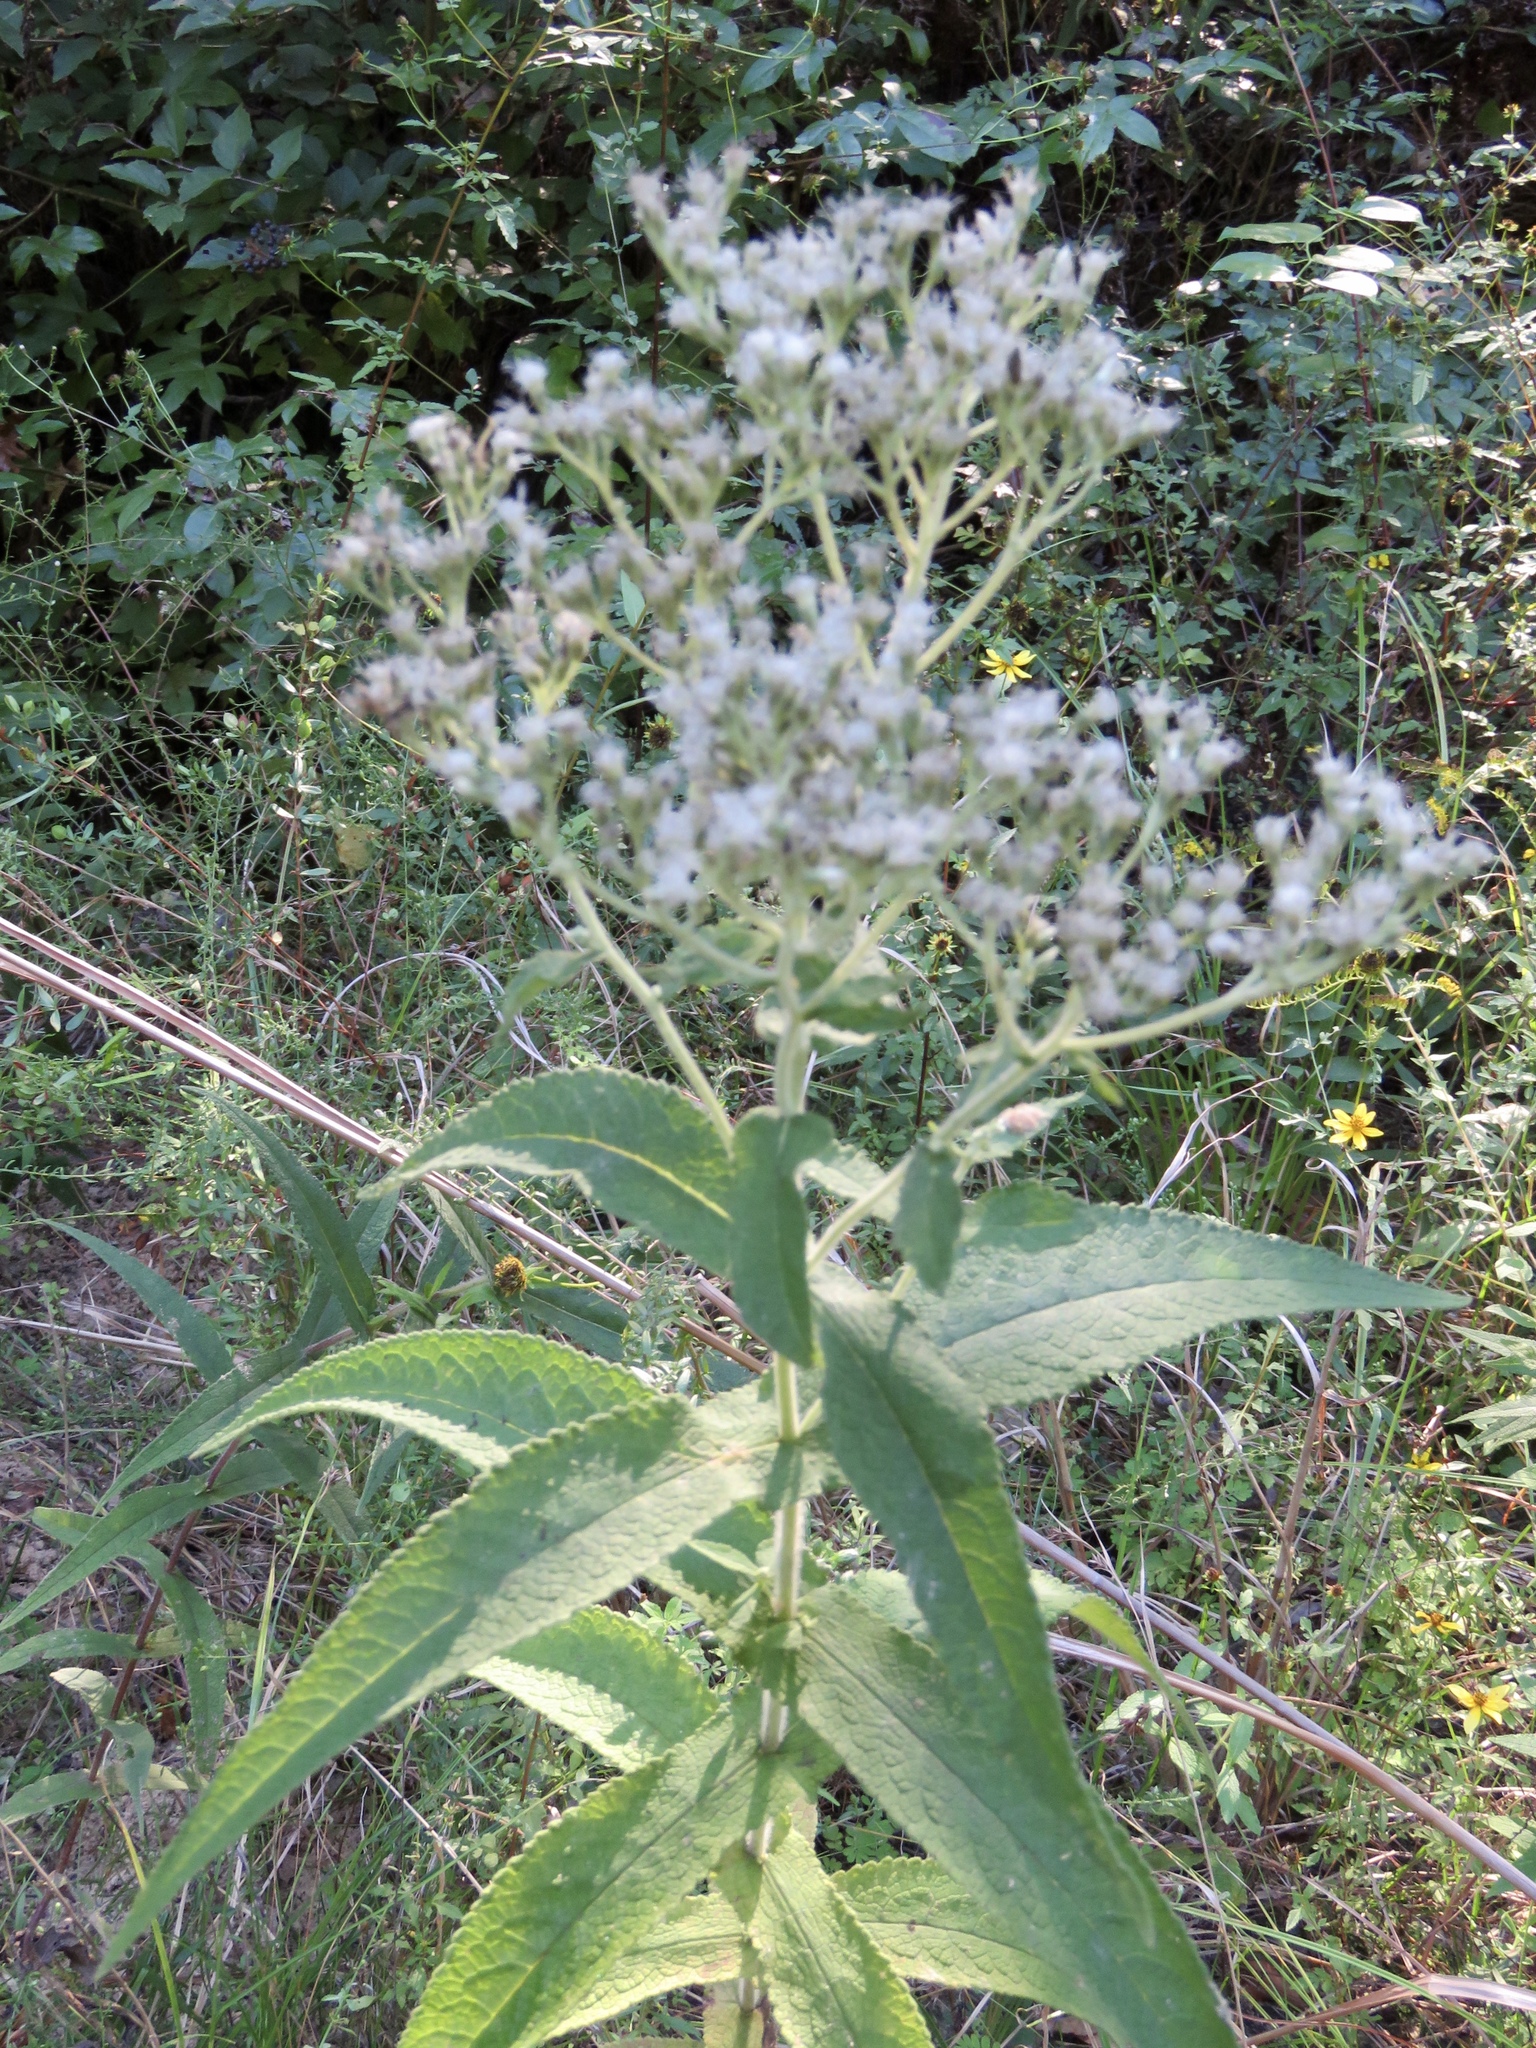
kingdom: Plantae
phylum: Tracheophyta
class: Magnoliopsida
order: Asterales
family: Asteraceae
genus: Eupatorium
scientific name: Eupatorium perfoliatum
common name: Boneset
